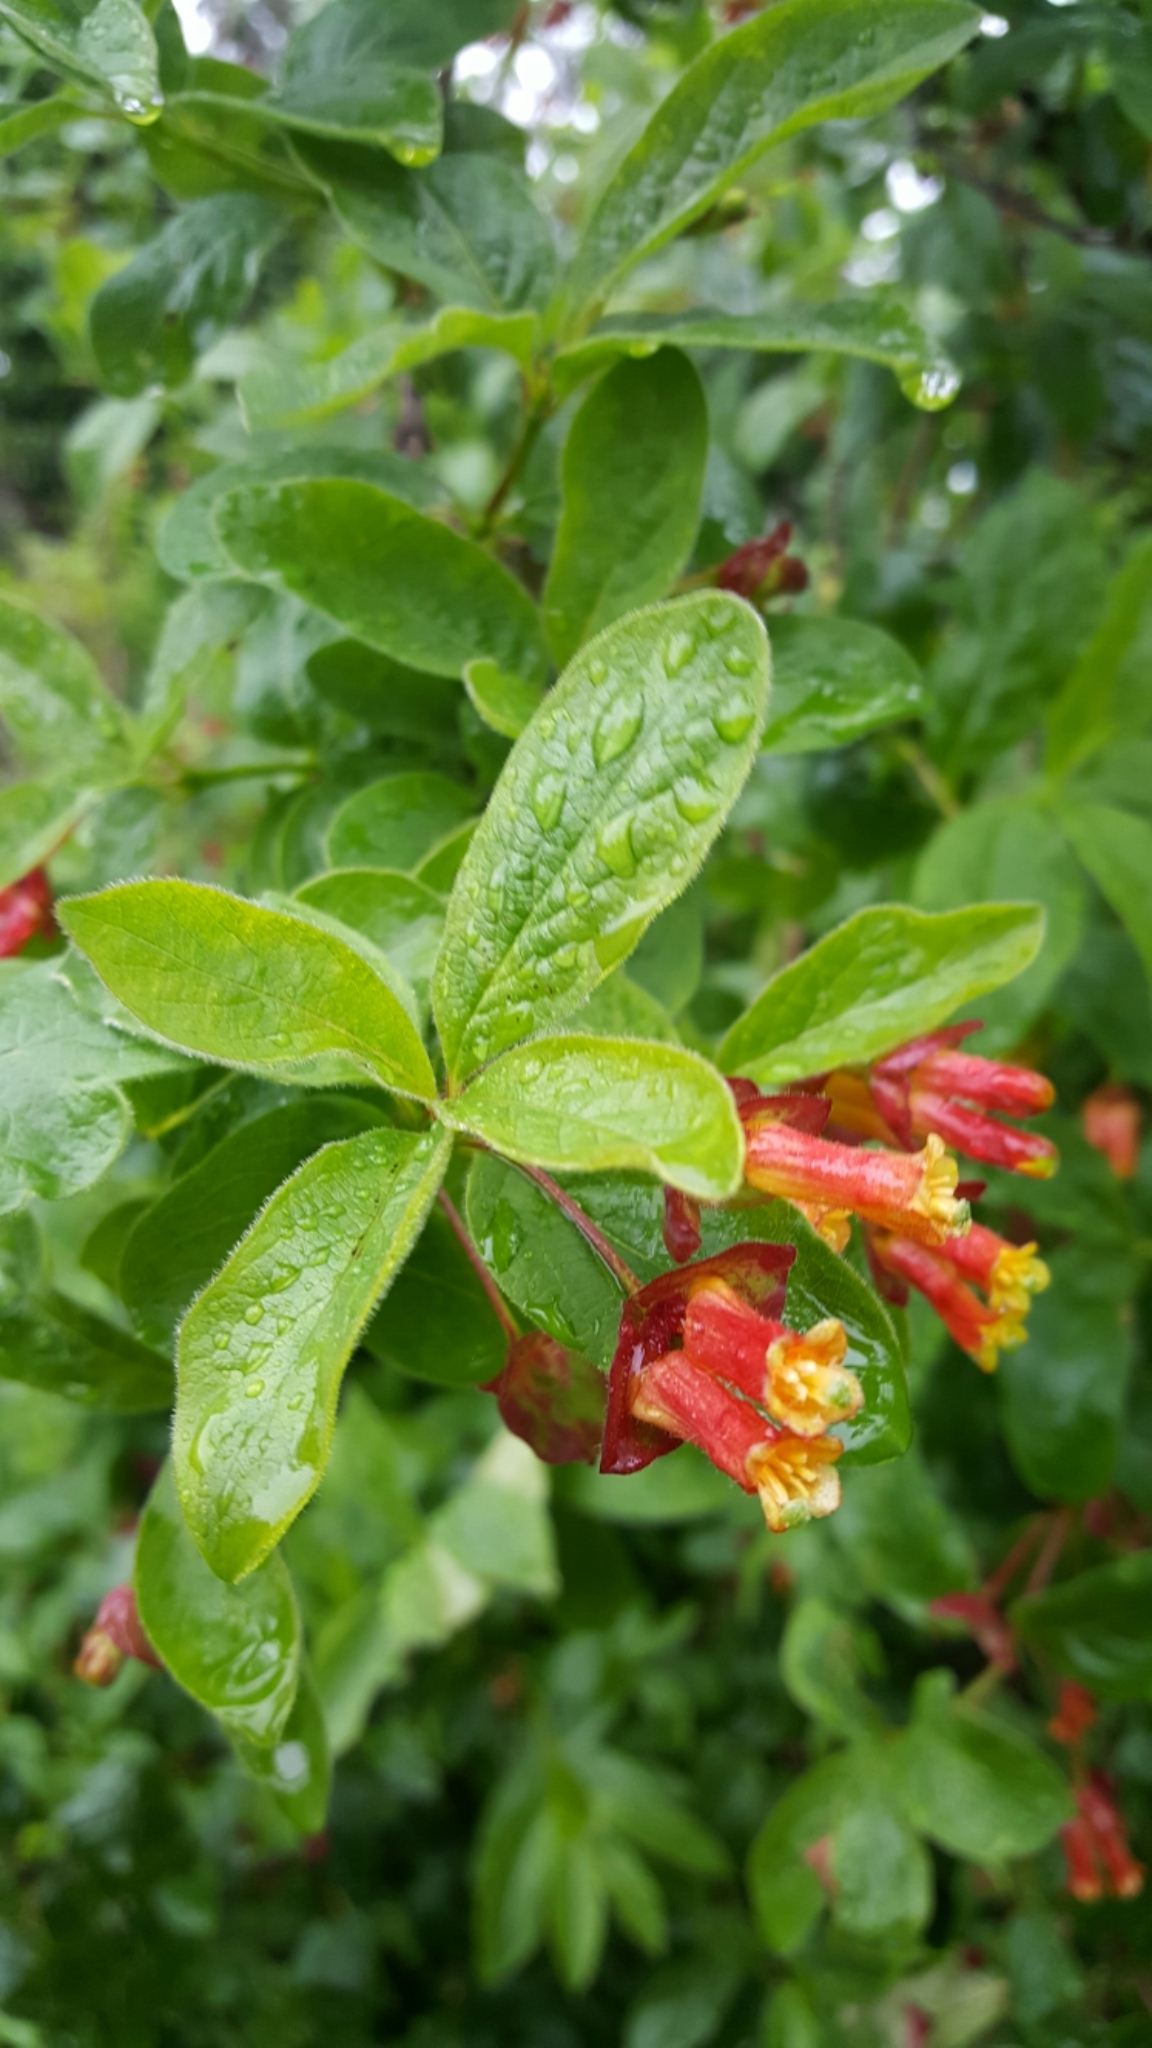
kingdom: Plantae
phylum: Tracheophyta
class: Magnoliopsida
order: Dipsacales
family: Caprifoliaceae
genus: Lonicera
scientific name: Lonicera involucrata
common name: Californian honeysuckle
